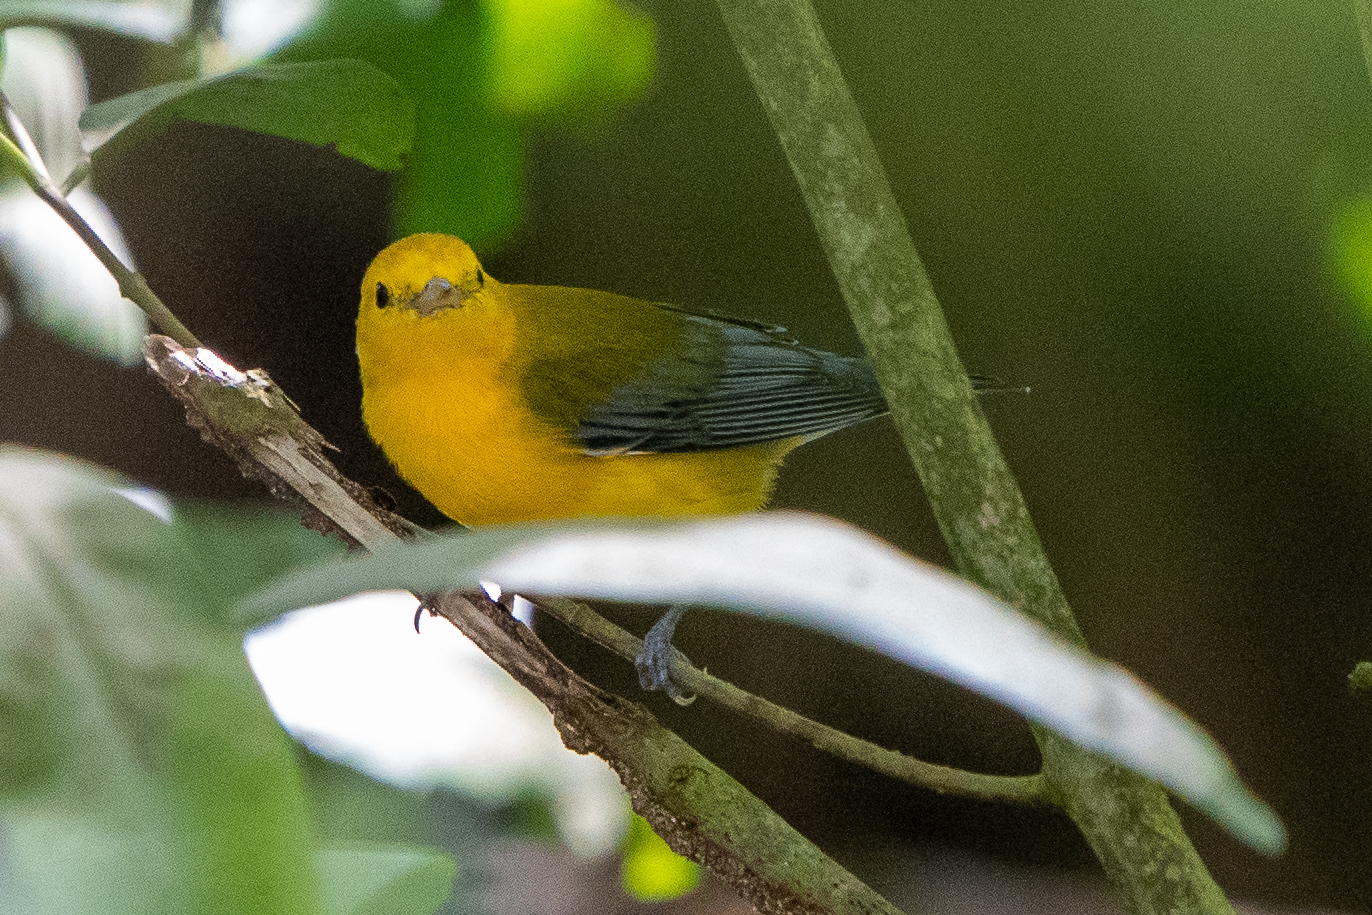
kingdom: Animalia
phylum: Chordata
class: Aves
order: Passeriformes
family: Parulidae
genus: Protonotaria
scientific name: Protonotaria citrea
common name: Prothonotary warbler
